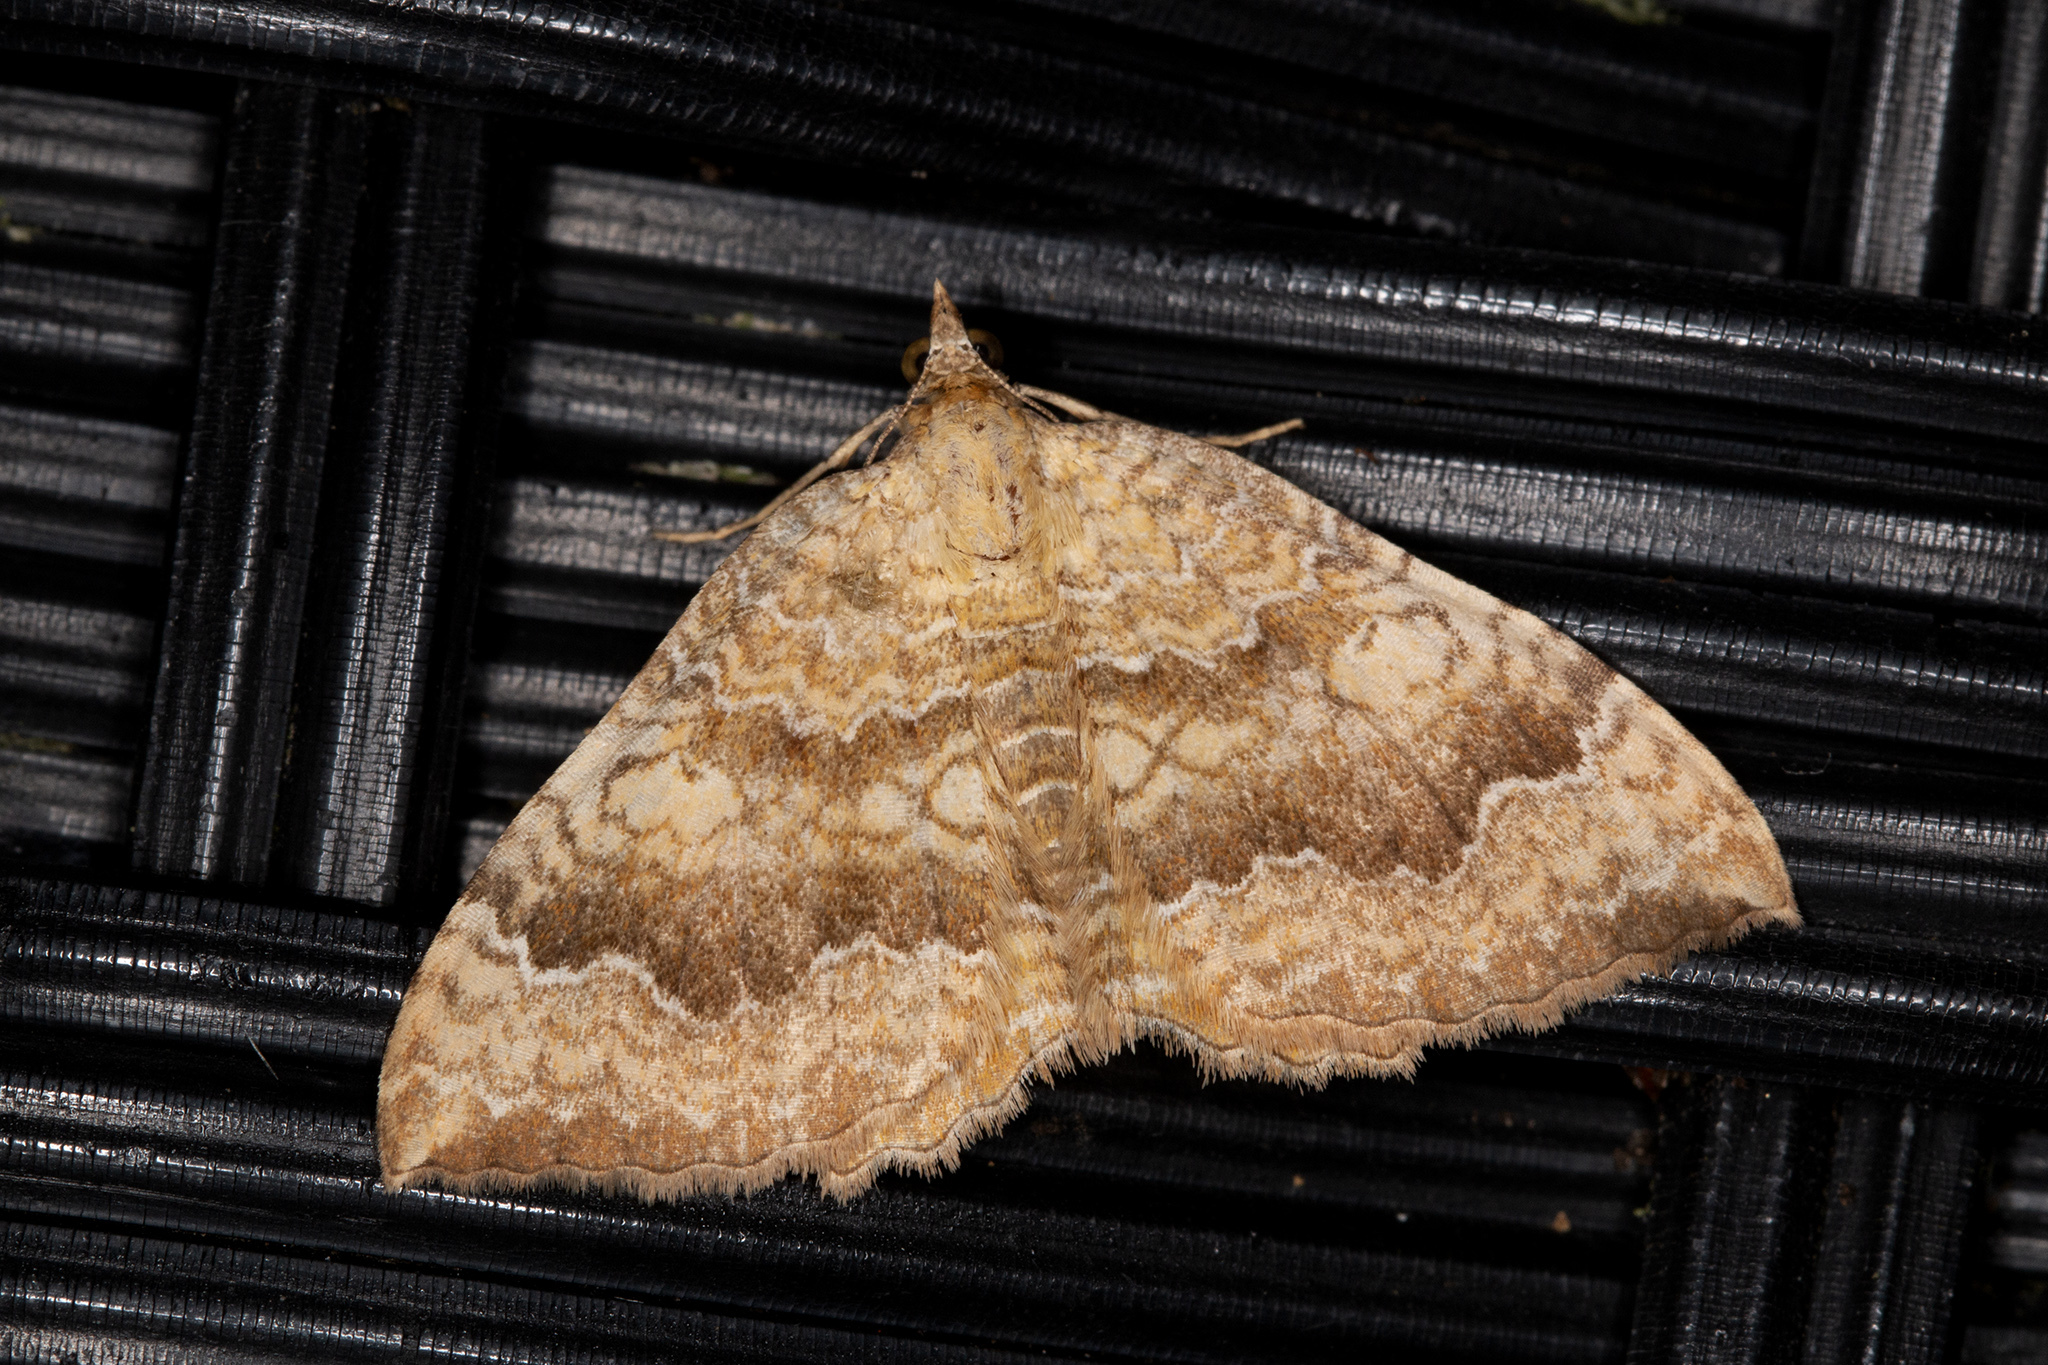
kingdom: Animalia
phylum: Arthropoda
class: Insecta
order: Lepidoptera
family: Geometridae
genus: Camptogramma
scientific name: Camptogramma bilineata
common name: Yellow shell
